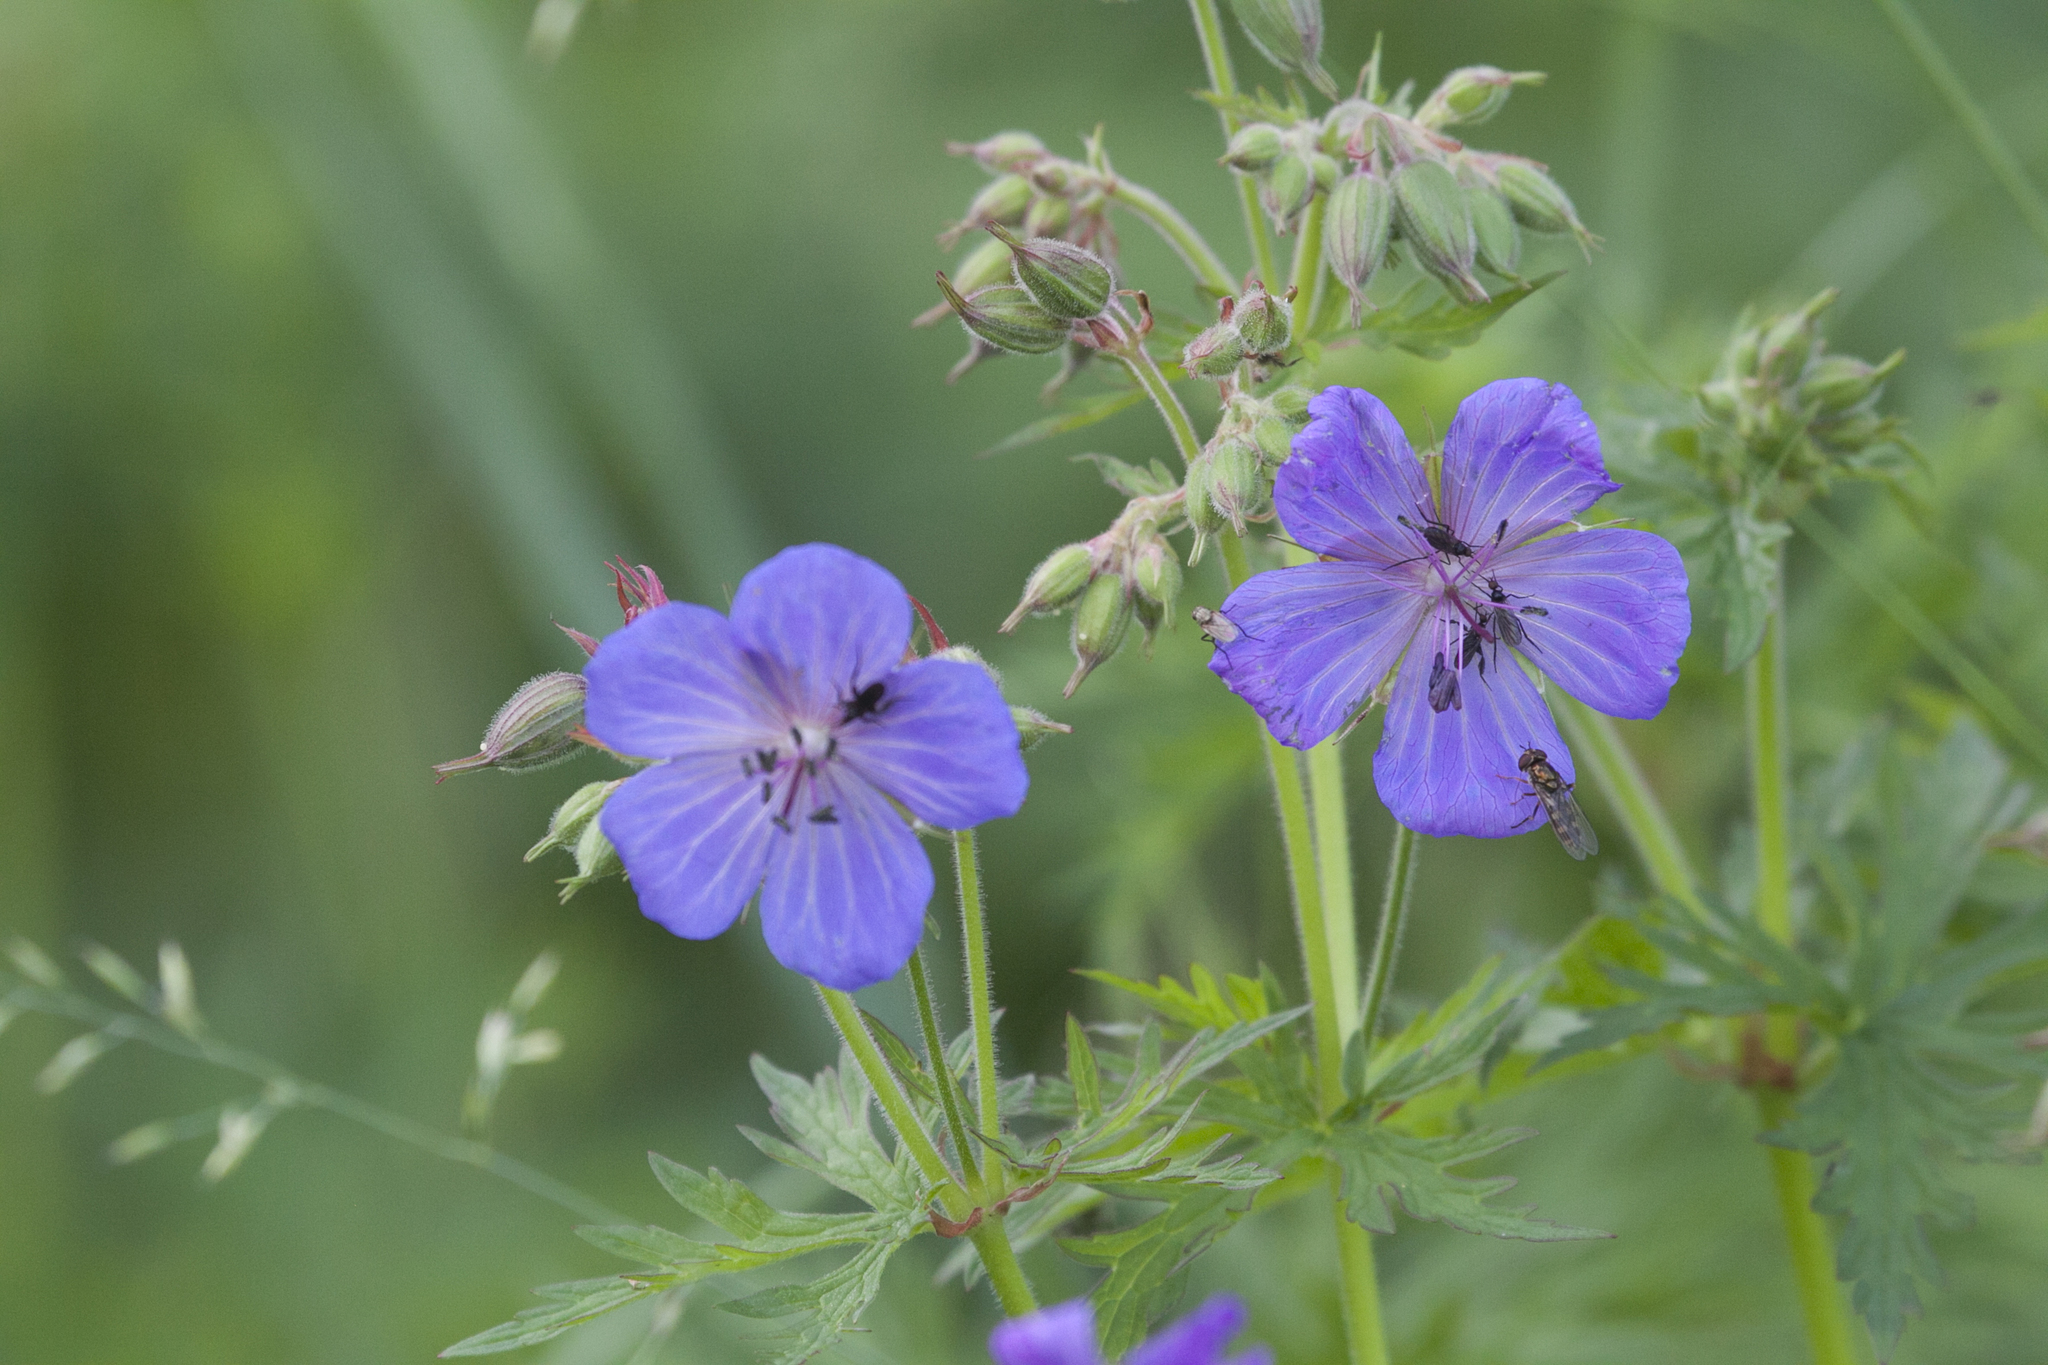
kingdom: Plantae
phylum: Tracheophyta
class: Magnoliopsida
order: Geraniales
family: Geraniaceae
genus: Geranium
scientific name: Geranium pratense
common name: Meadow crane's-bill
